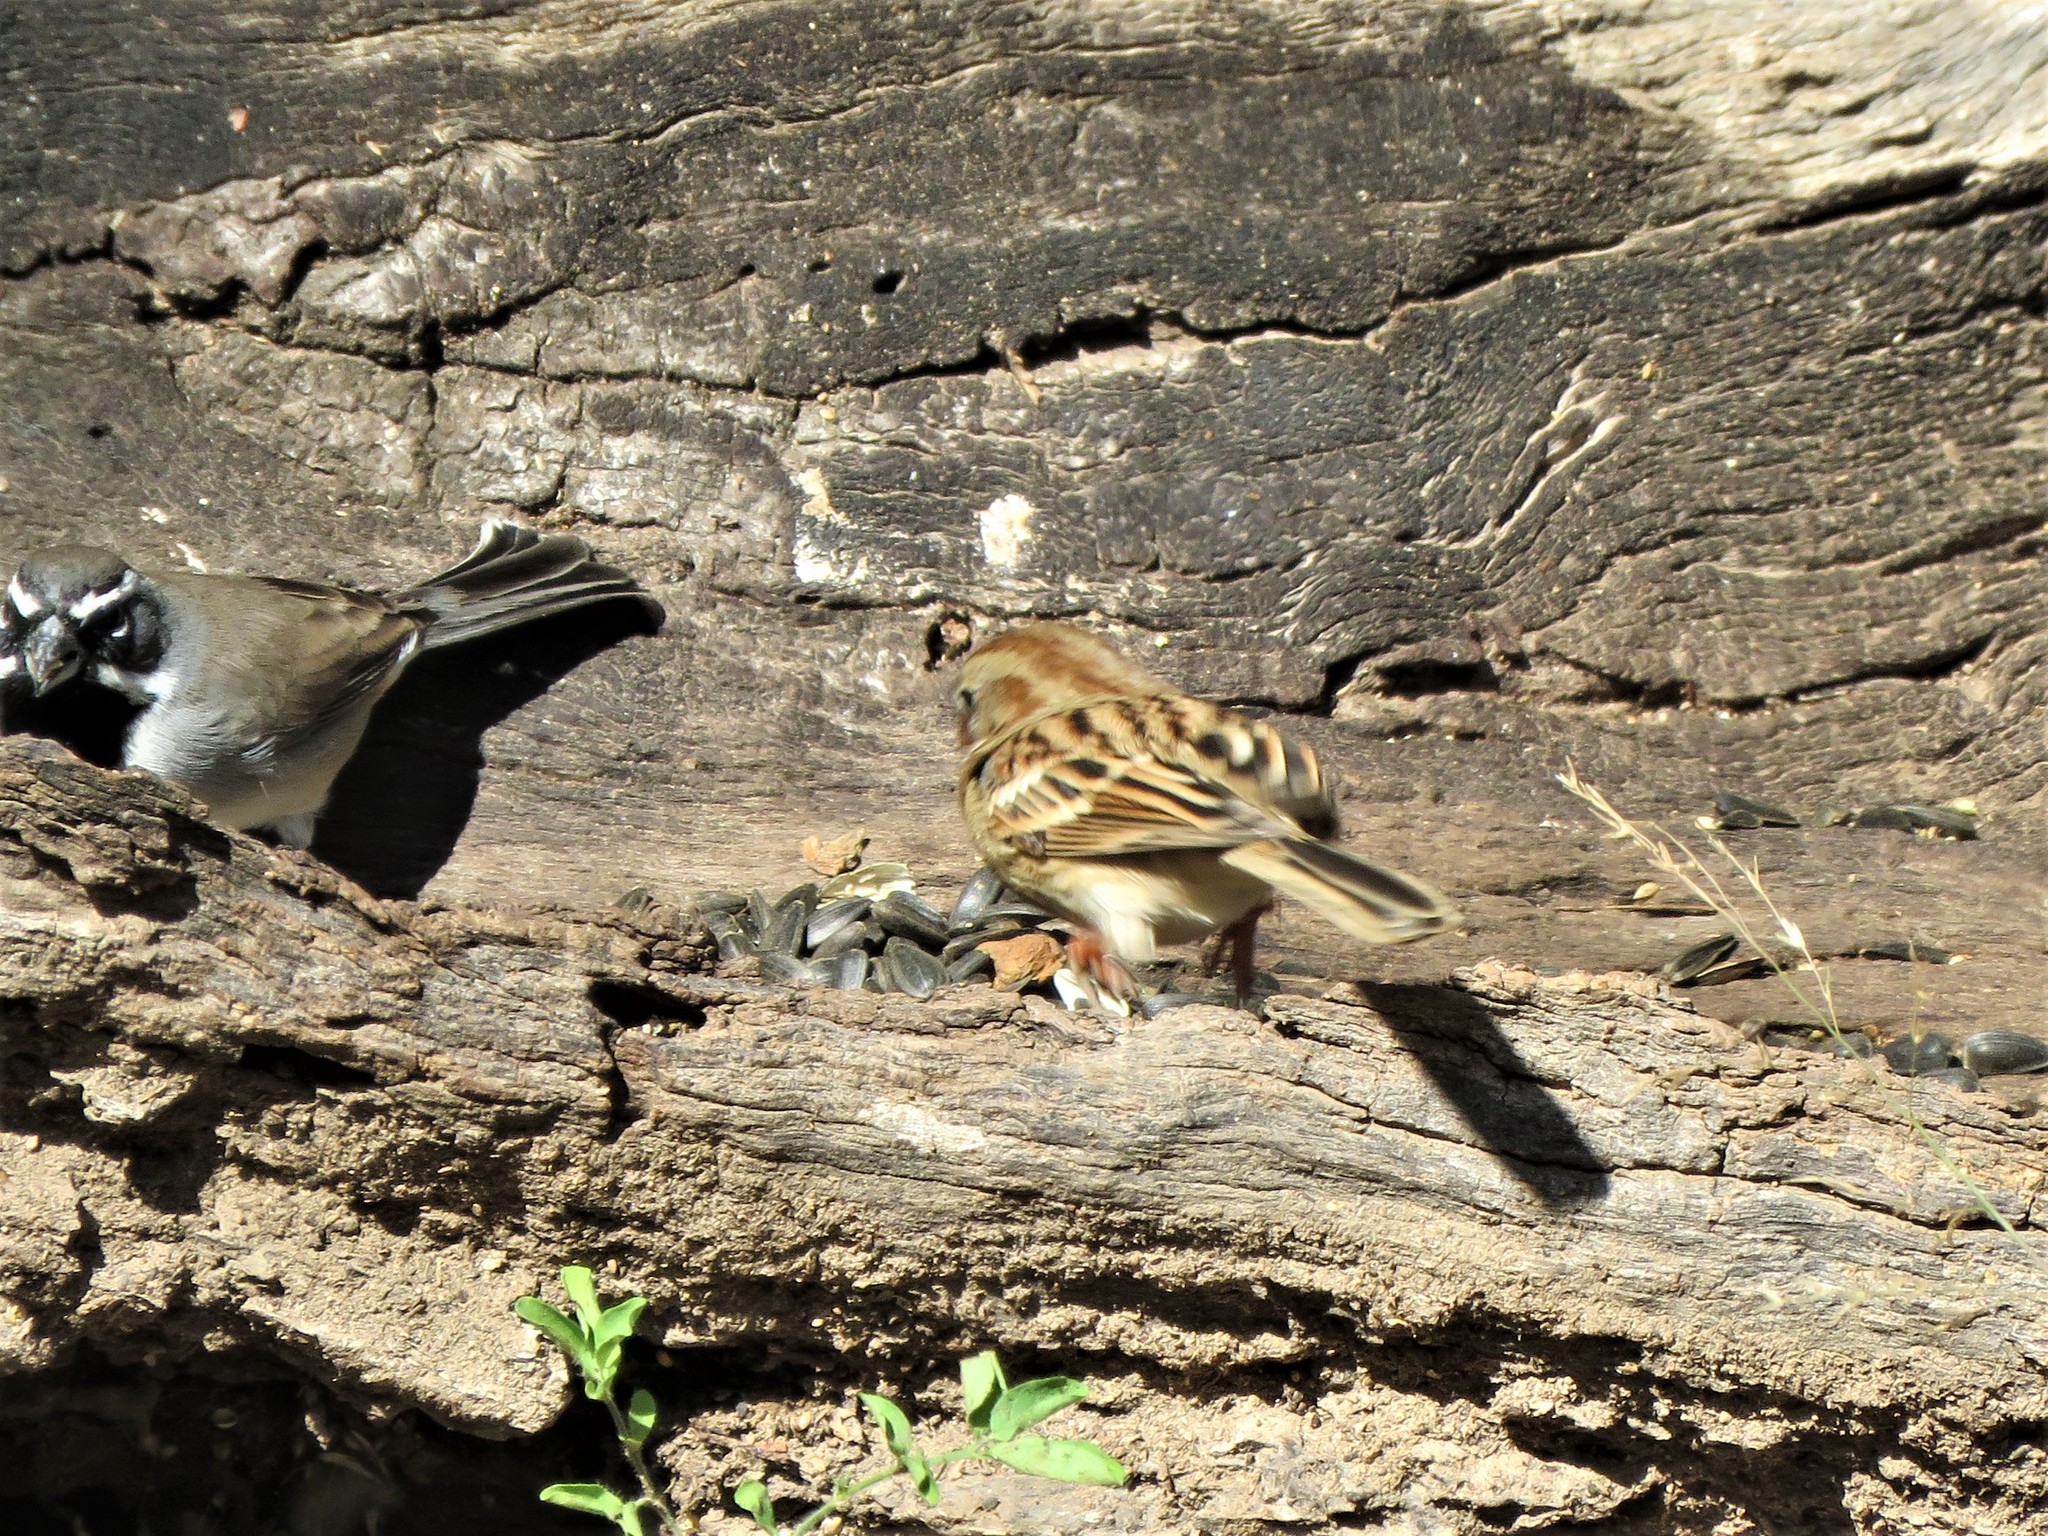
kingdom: Animalia
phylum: Chordata
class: Aves
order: Passeriformes
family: Passerellidae
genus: Spizella
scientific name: Spizella pusilla
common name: Field sparrow
